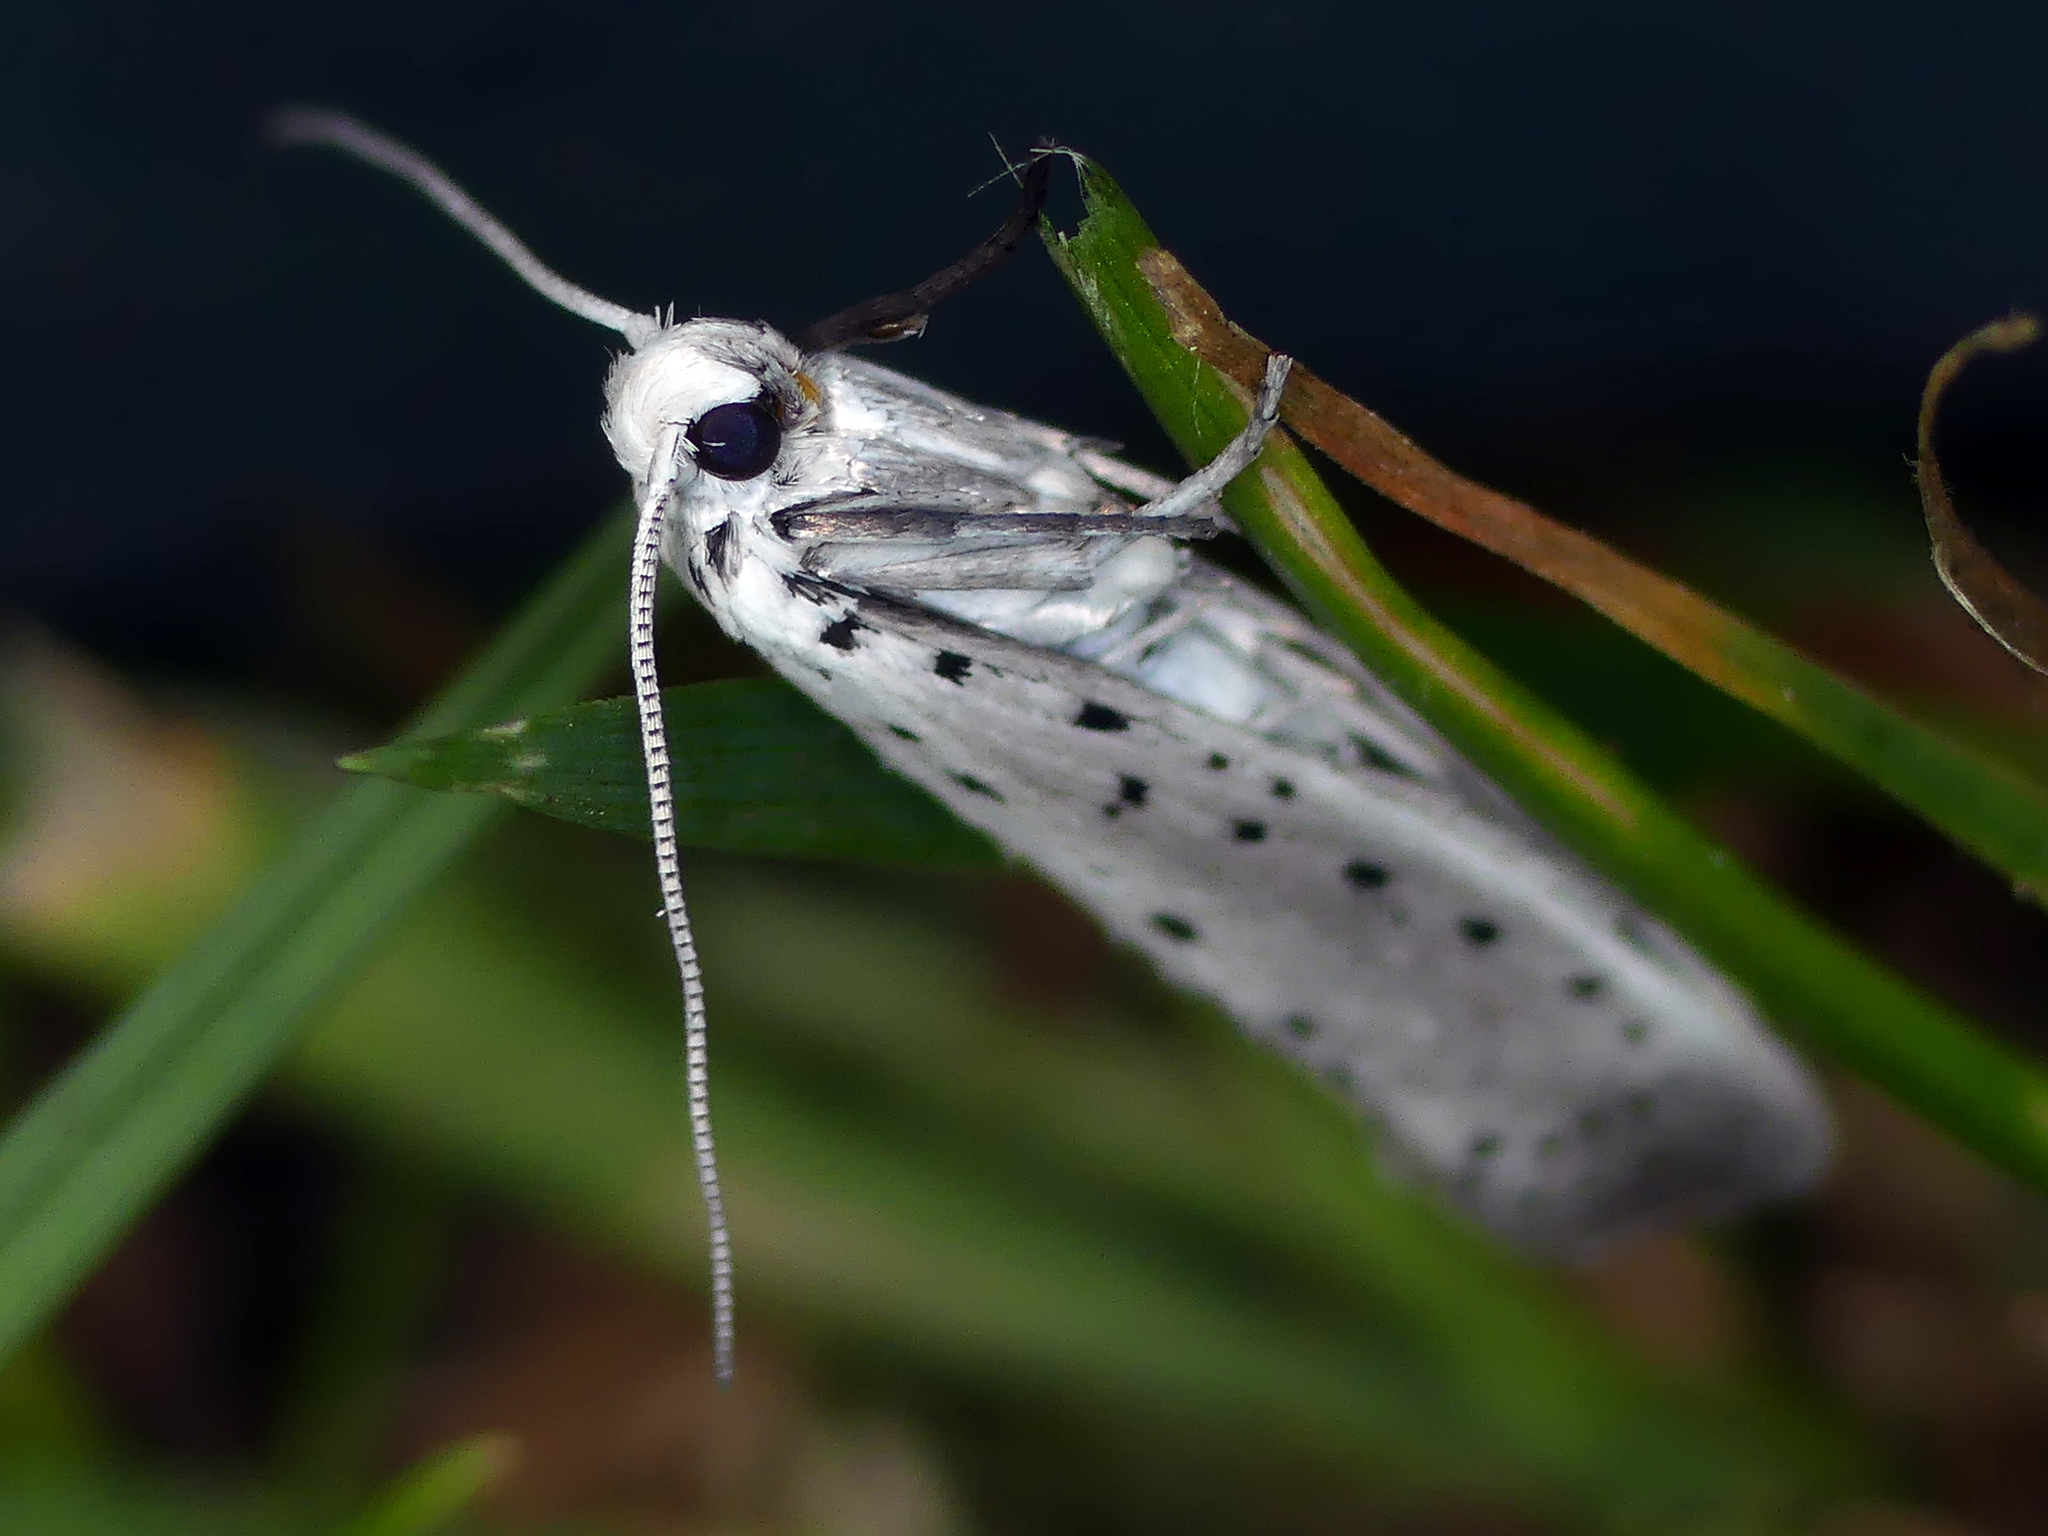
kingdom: Animalia
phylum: Arthropoda
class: Insecta
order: Lepidoptera
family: Yponomeutidae
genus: Yponomeuta
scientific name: Yponomeuta
